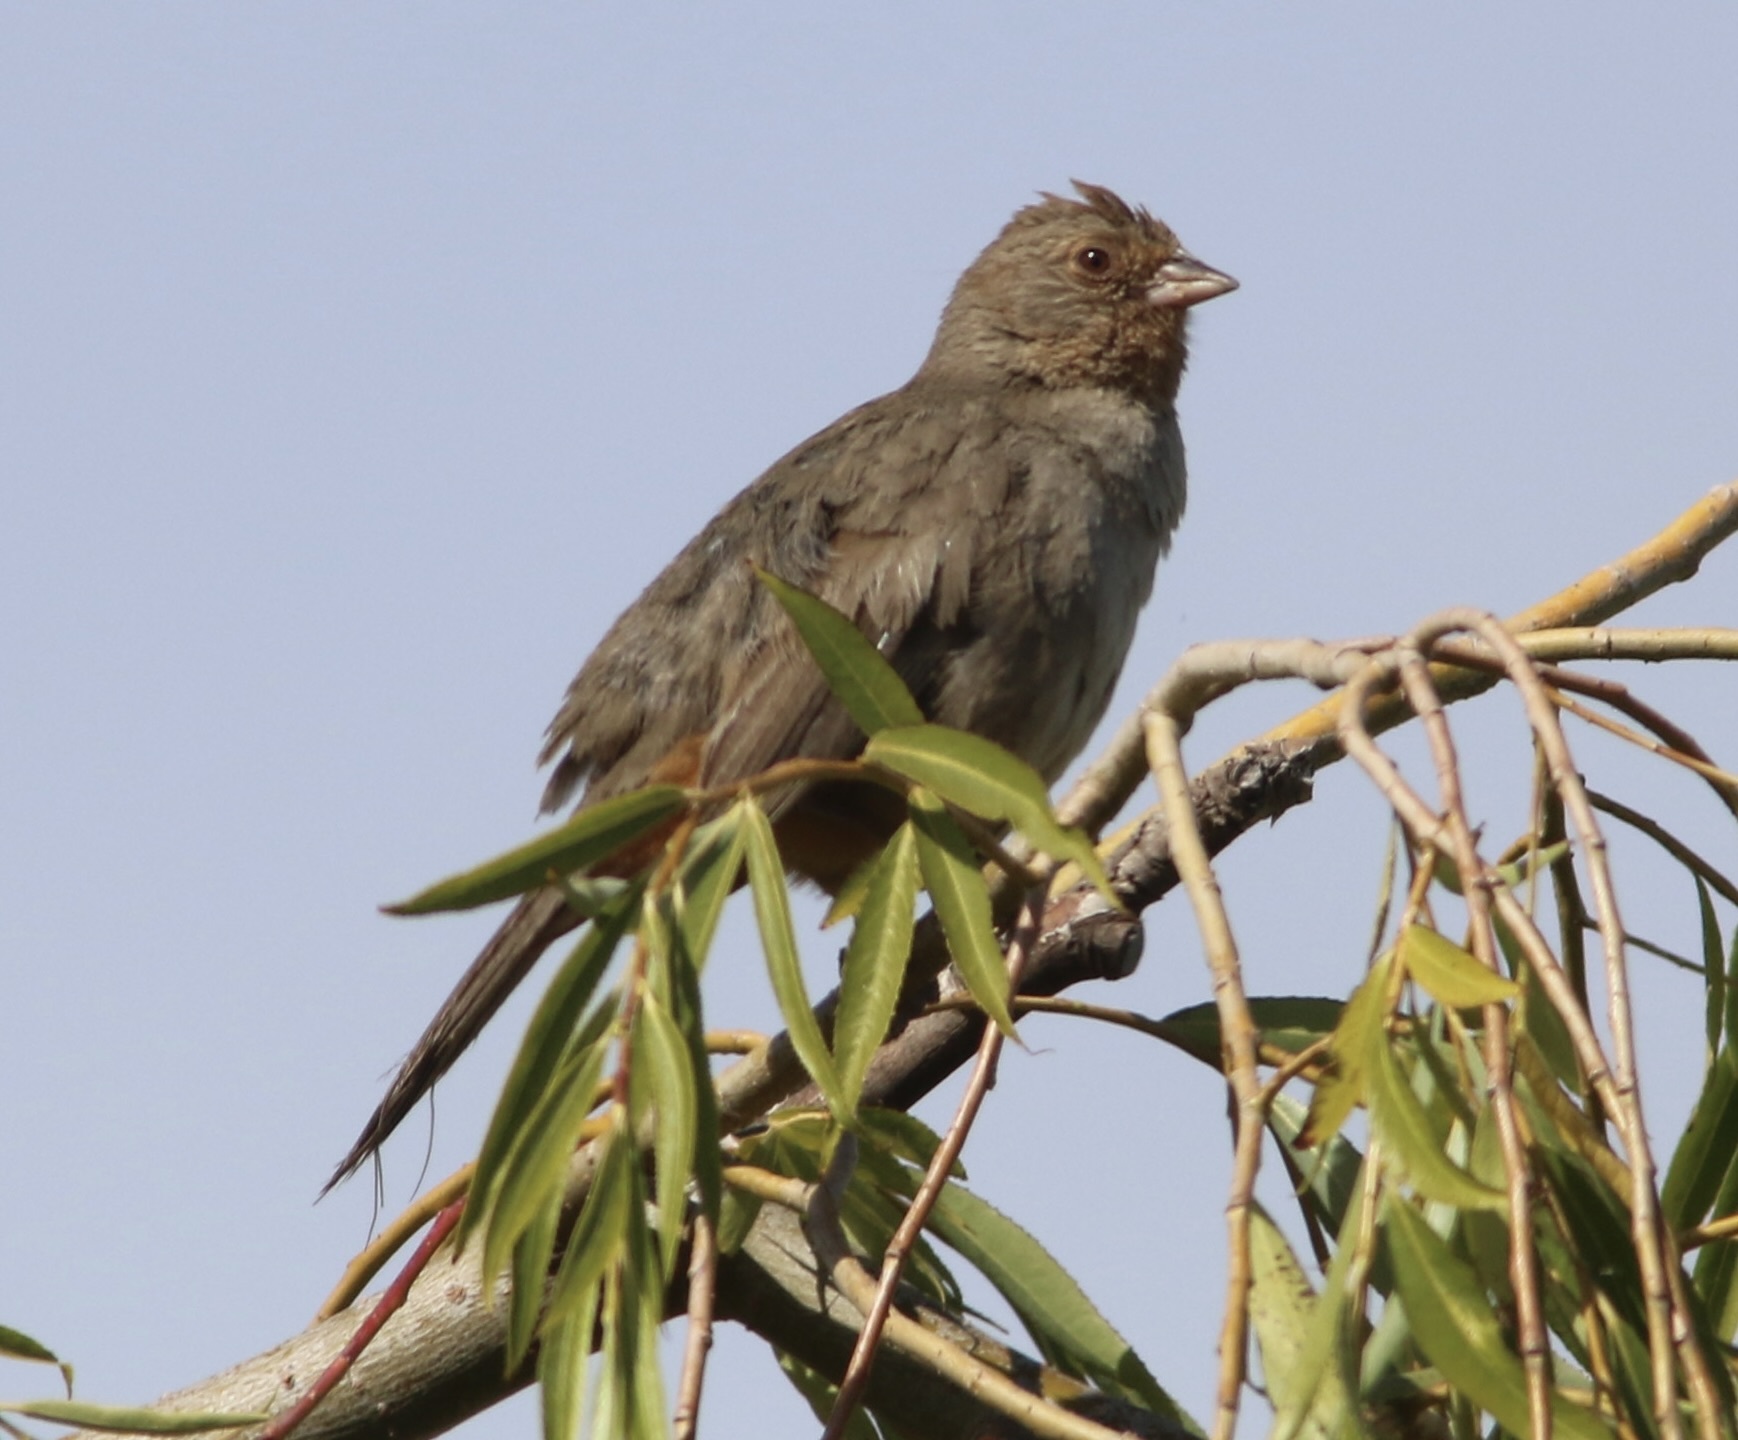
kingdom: Animalia
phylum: Chordata
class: Aves
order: Passeriformes
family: Passerellidae
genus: Melozone
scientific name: Melozone crissalis
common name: California towhee
